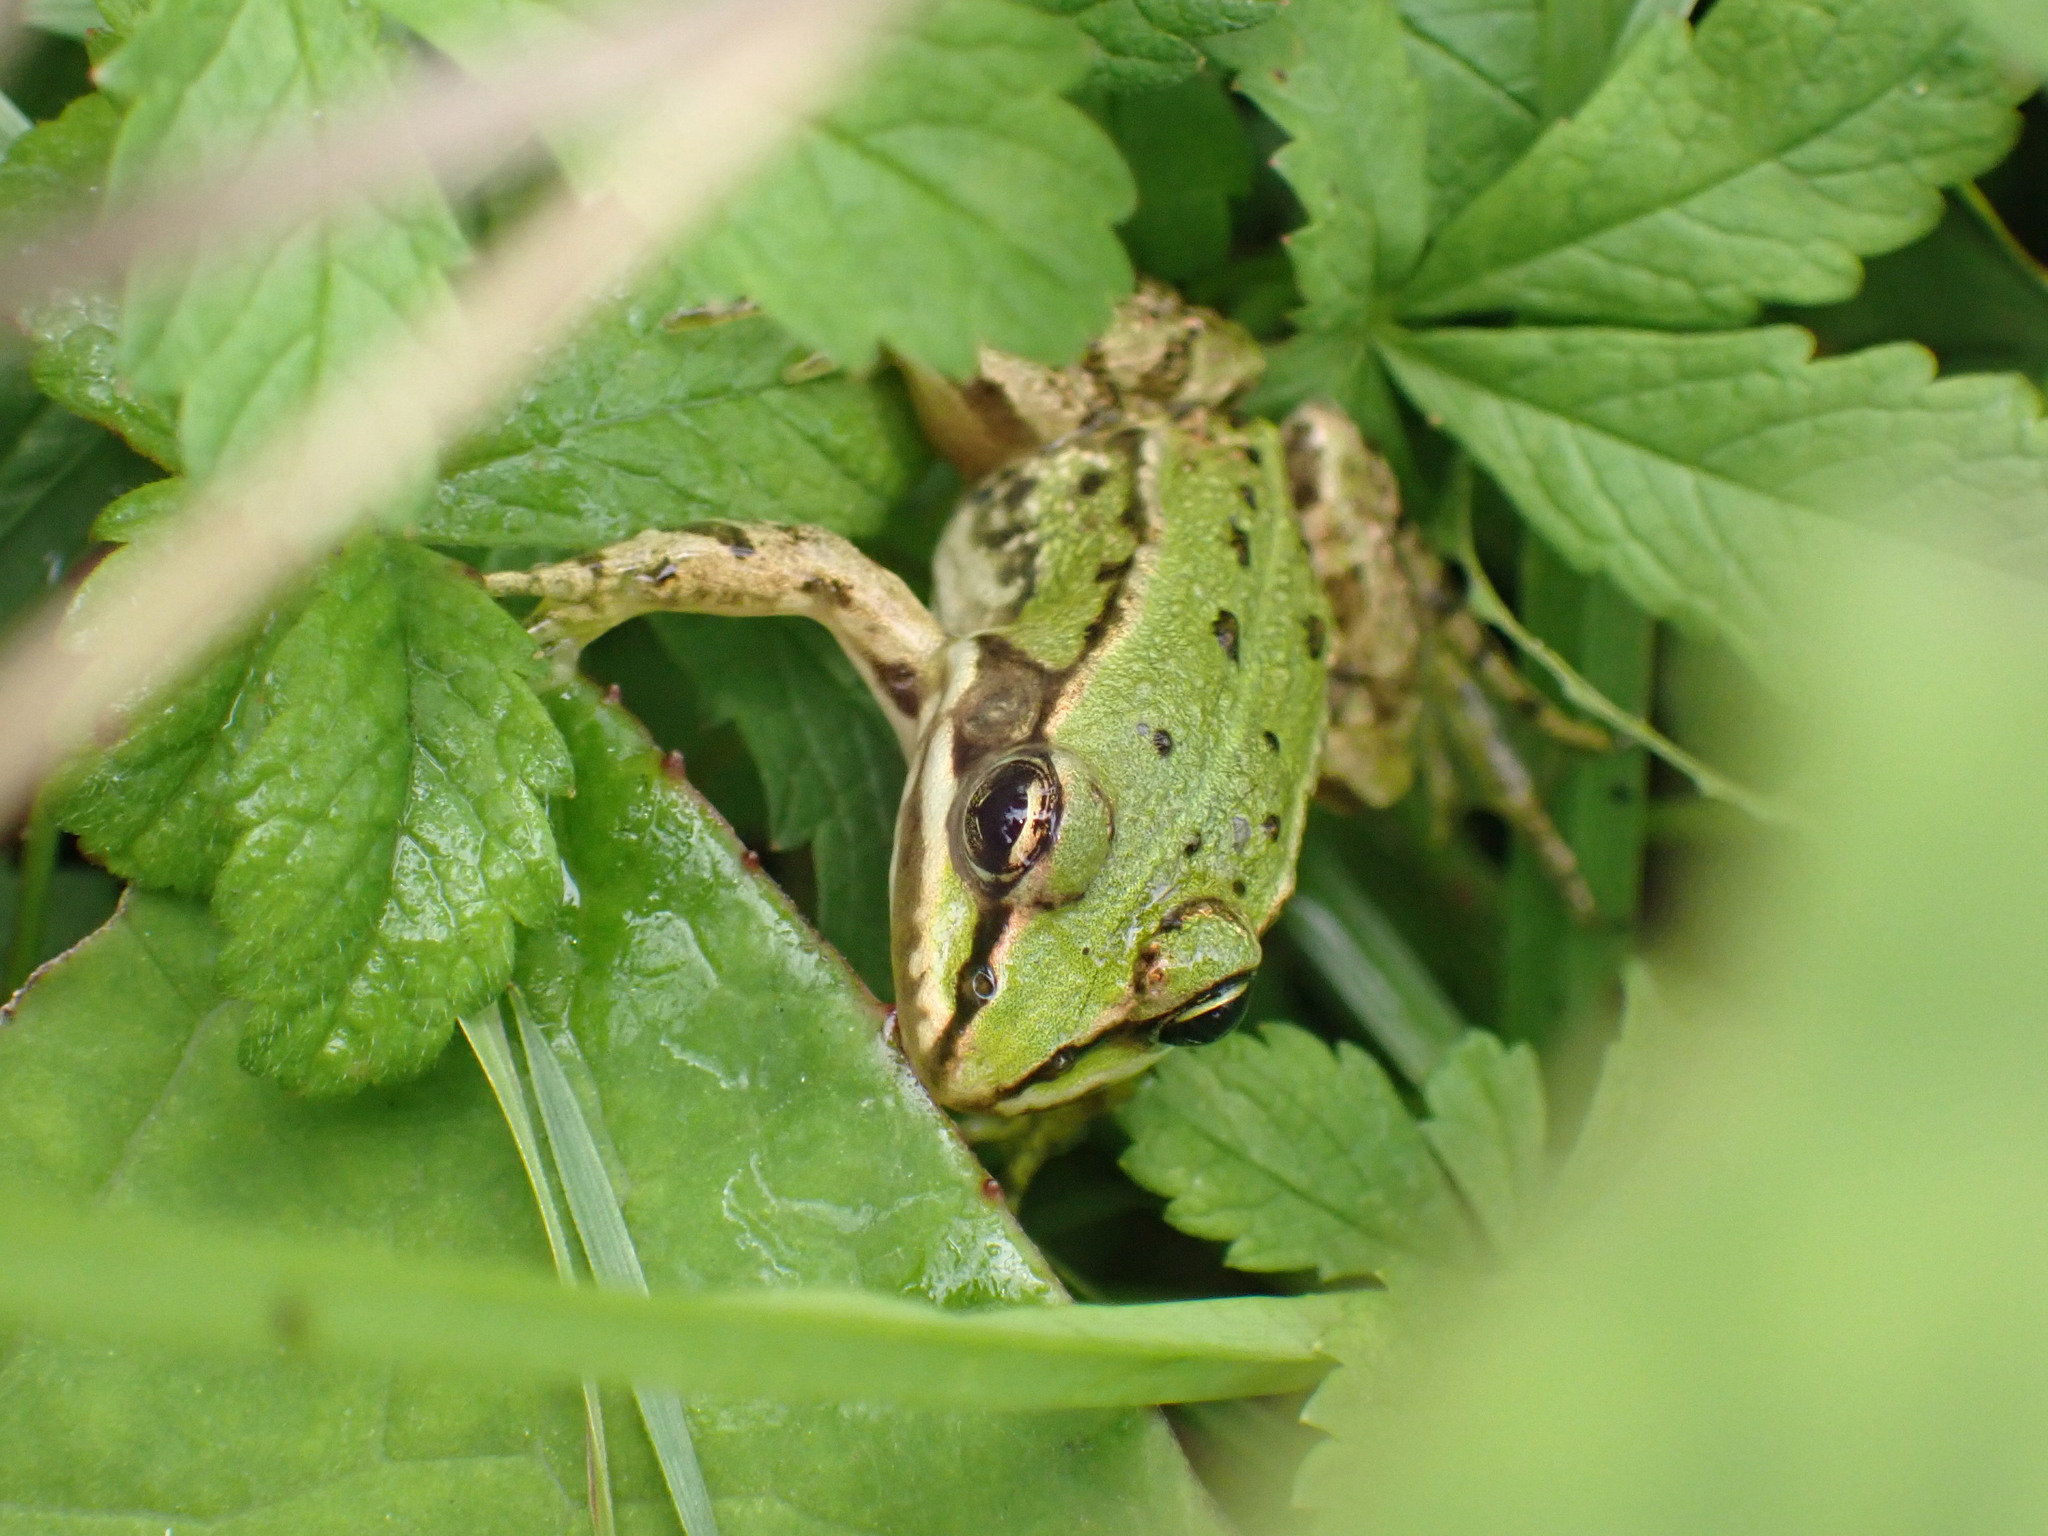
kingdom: Animalia
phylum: Chordata
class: Amphibia
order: Anura
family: Ranidae
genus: Pelophylax
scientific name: Pelophylax lessonae
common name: Pool frog
